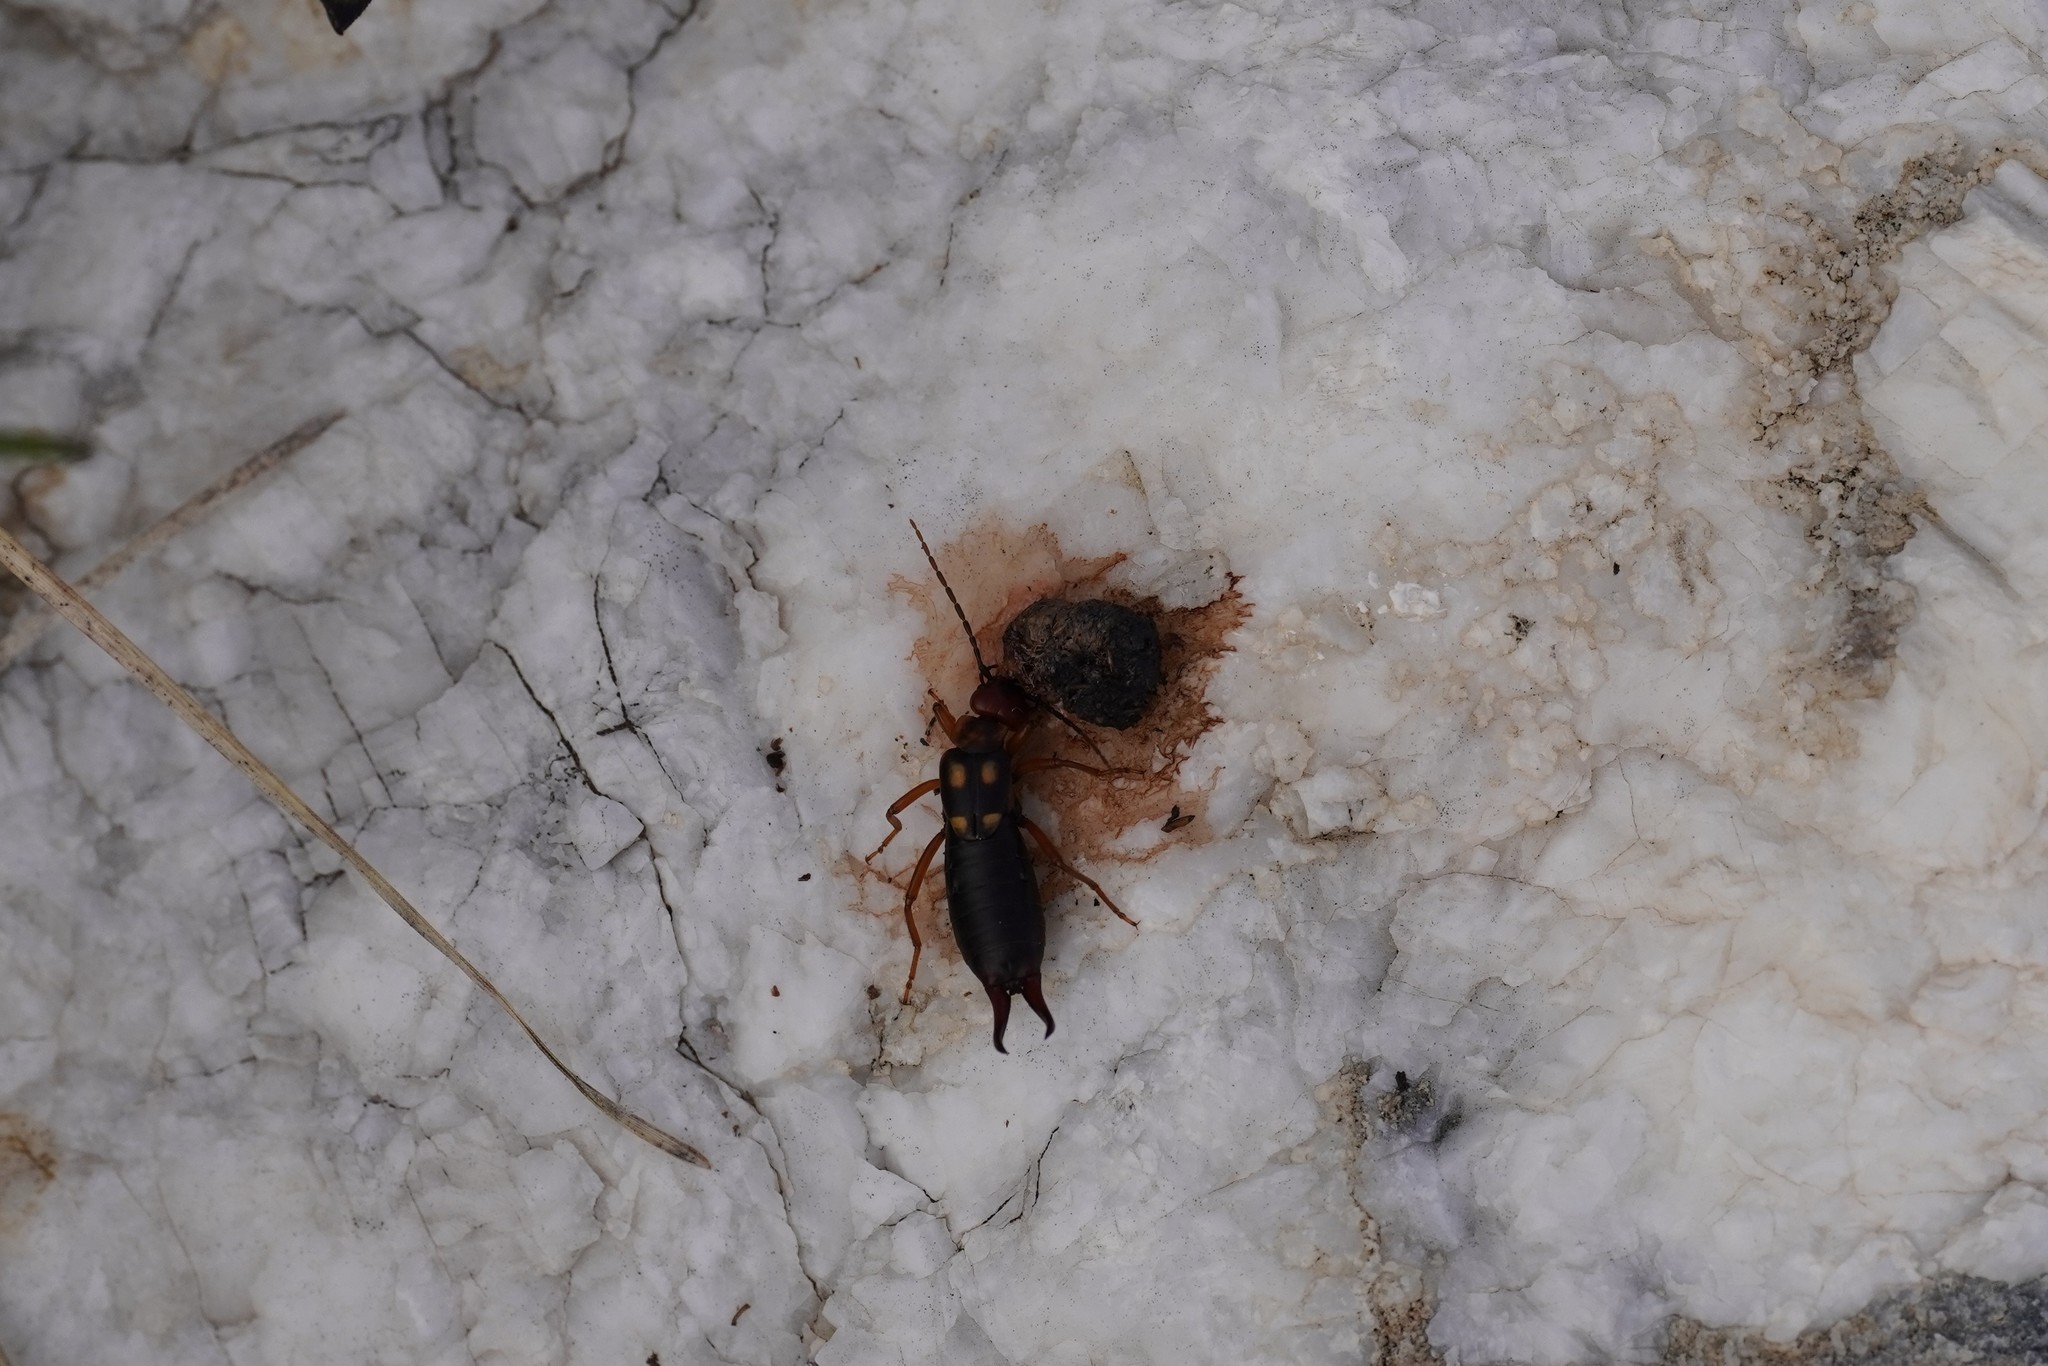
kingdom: Animalia
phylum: Arthropoda
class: Insecta
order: Dermaptera
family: Forficulidae
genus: Anechura
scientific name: Anechura bipunctata
